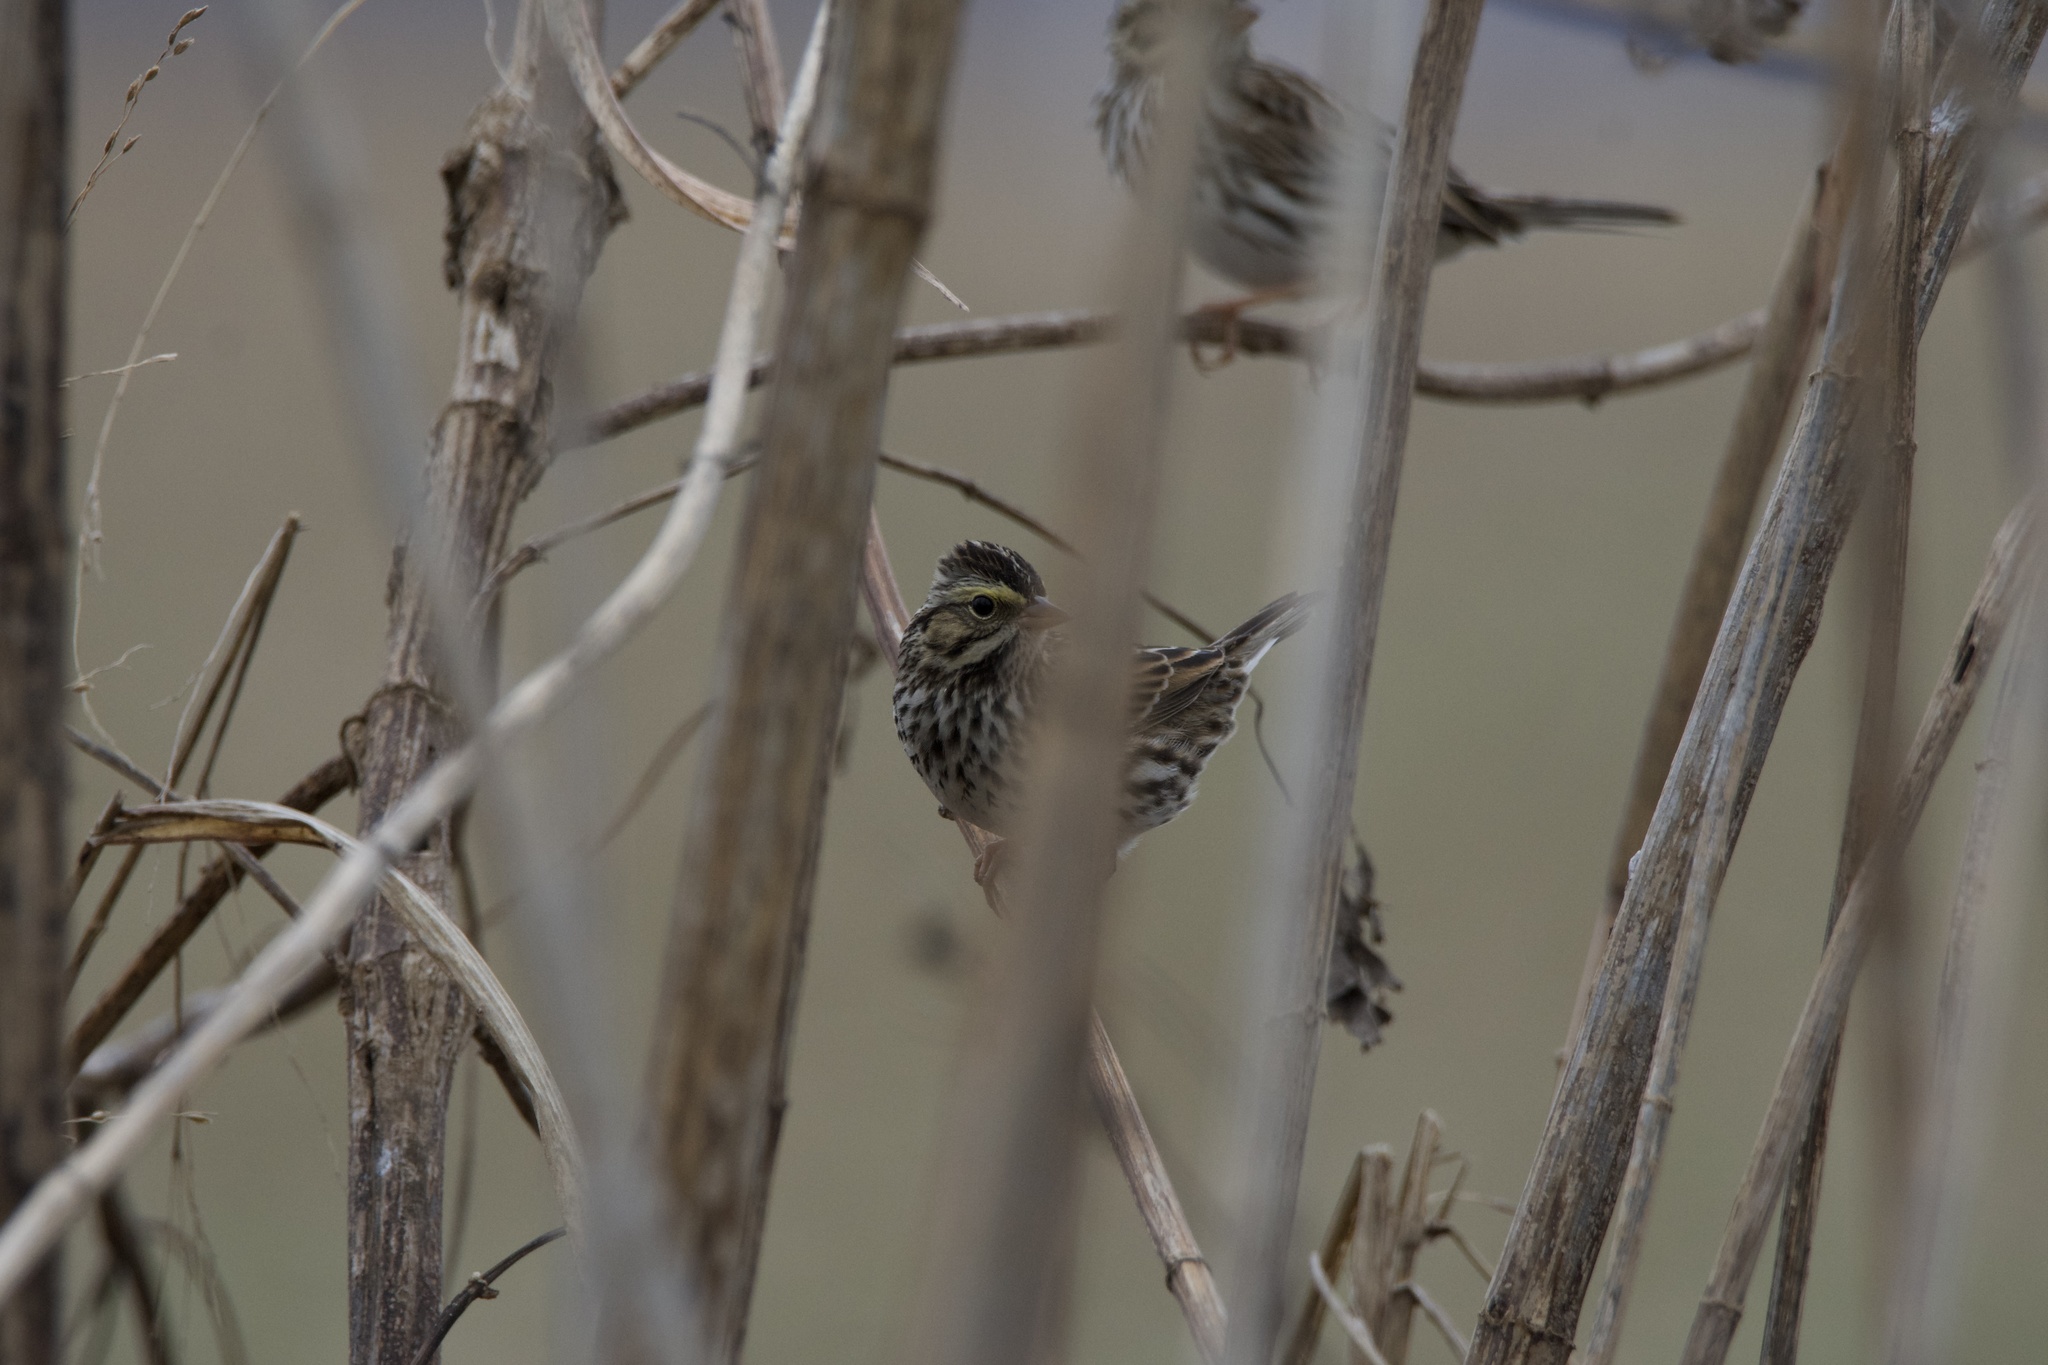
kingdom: Animalia
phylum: Chordata
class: Aves
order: Passeriformes
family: Passerellidae
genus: Passerculus
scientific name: Passerculus sandwichensis
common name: Savannah sparrow
